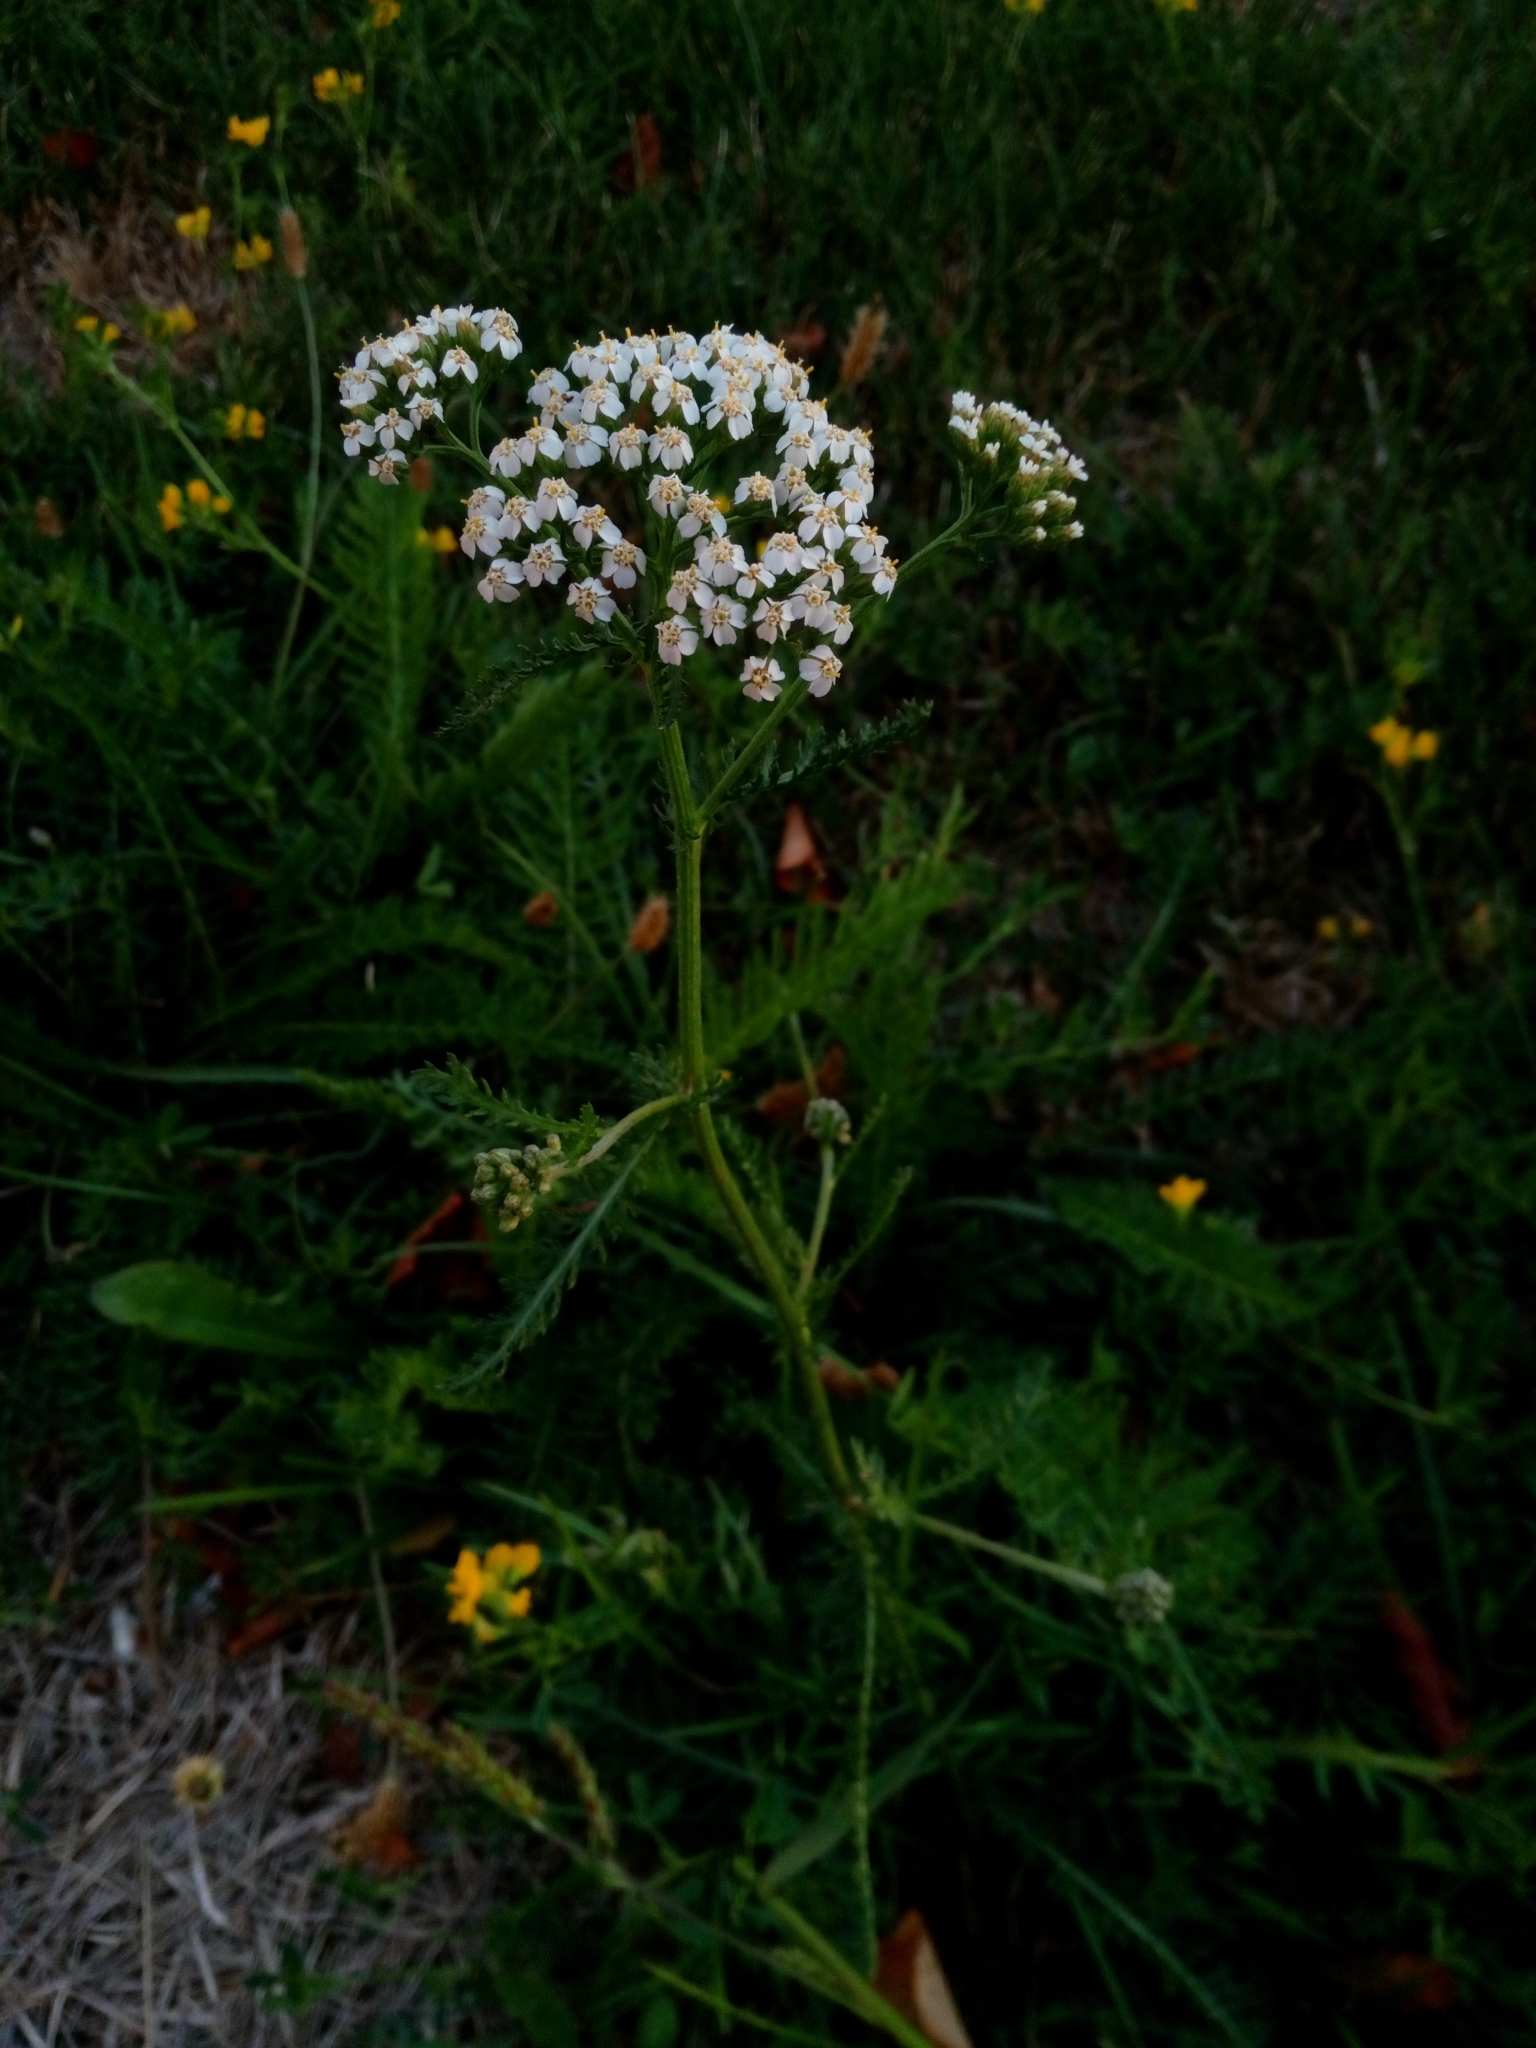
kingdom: Plantae
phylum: Tracheophyta
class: Magnoliopsida
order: Asterales
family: Asteraceae
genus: Achillea
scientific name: Achillea millefolium
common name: Yarrow
